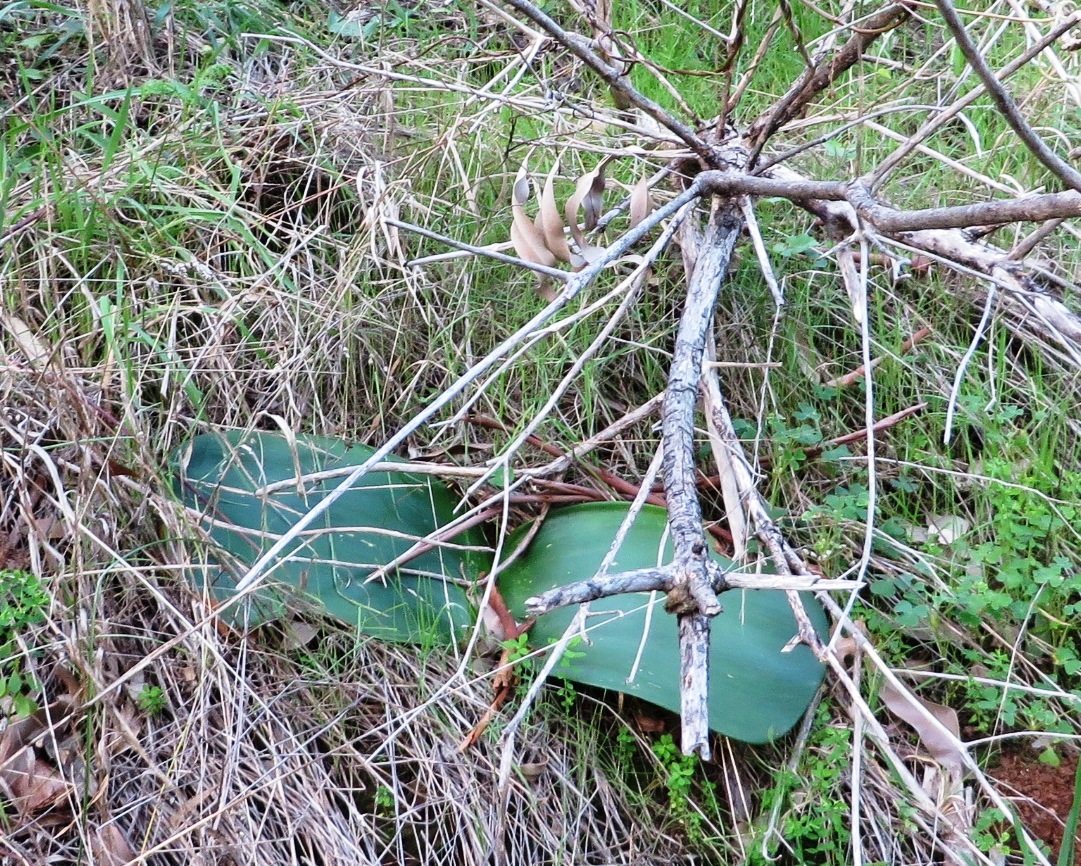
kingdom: Plantae
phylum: Tracheophyta
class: Liliopsida
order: Asparagales
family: Amaryllidaceae
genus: Haemanthus
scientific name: Haemanthus sanguineus
